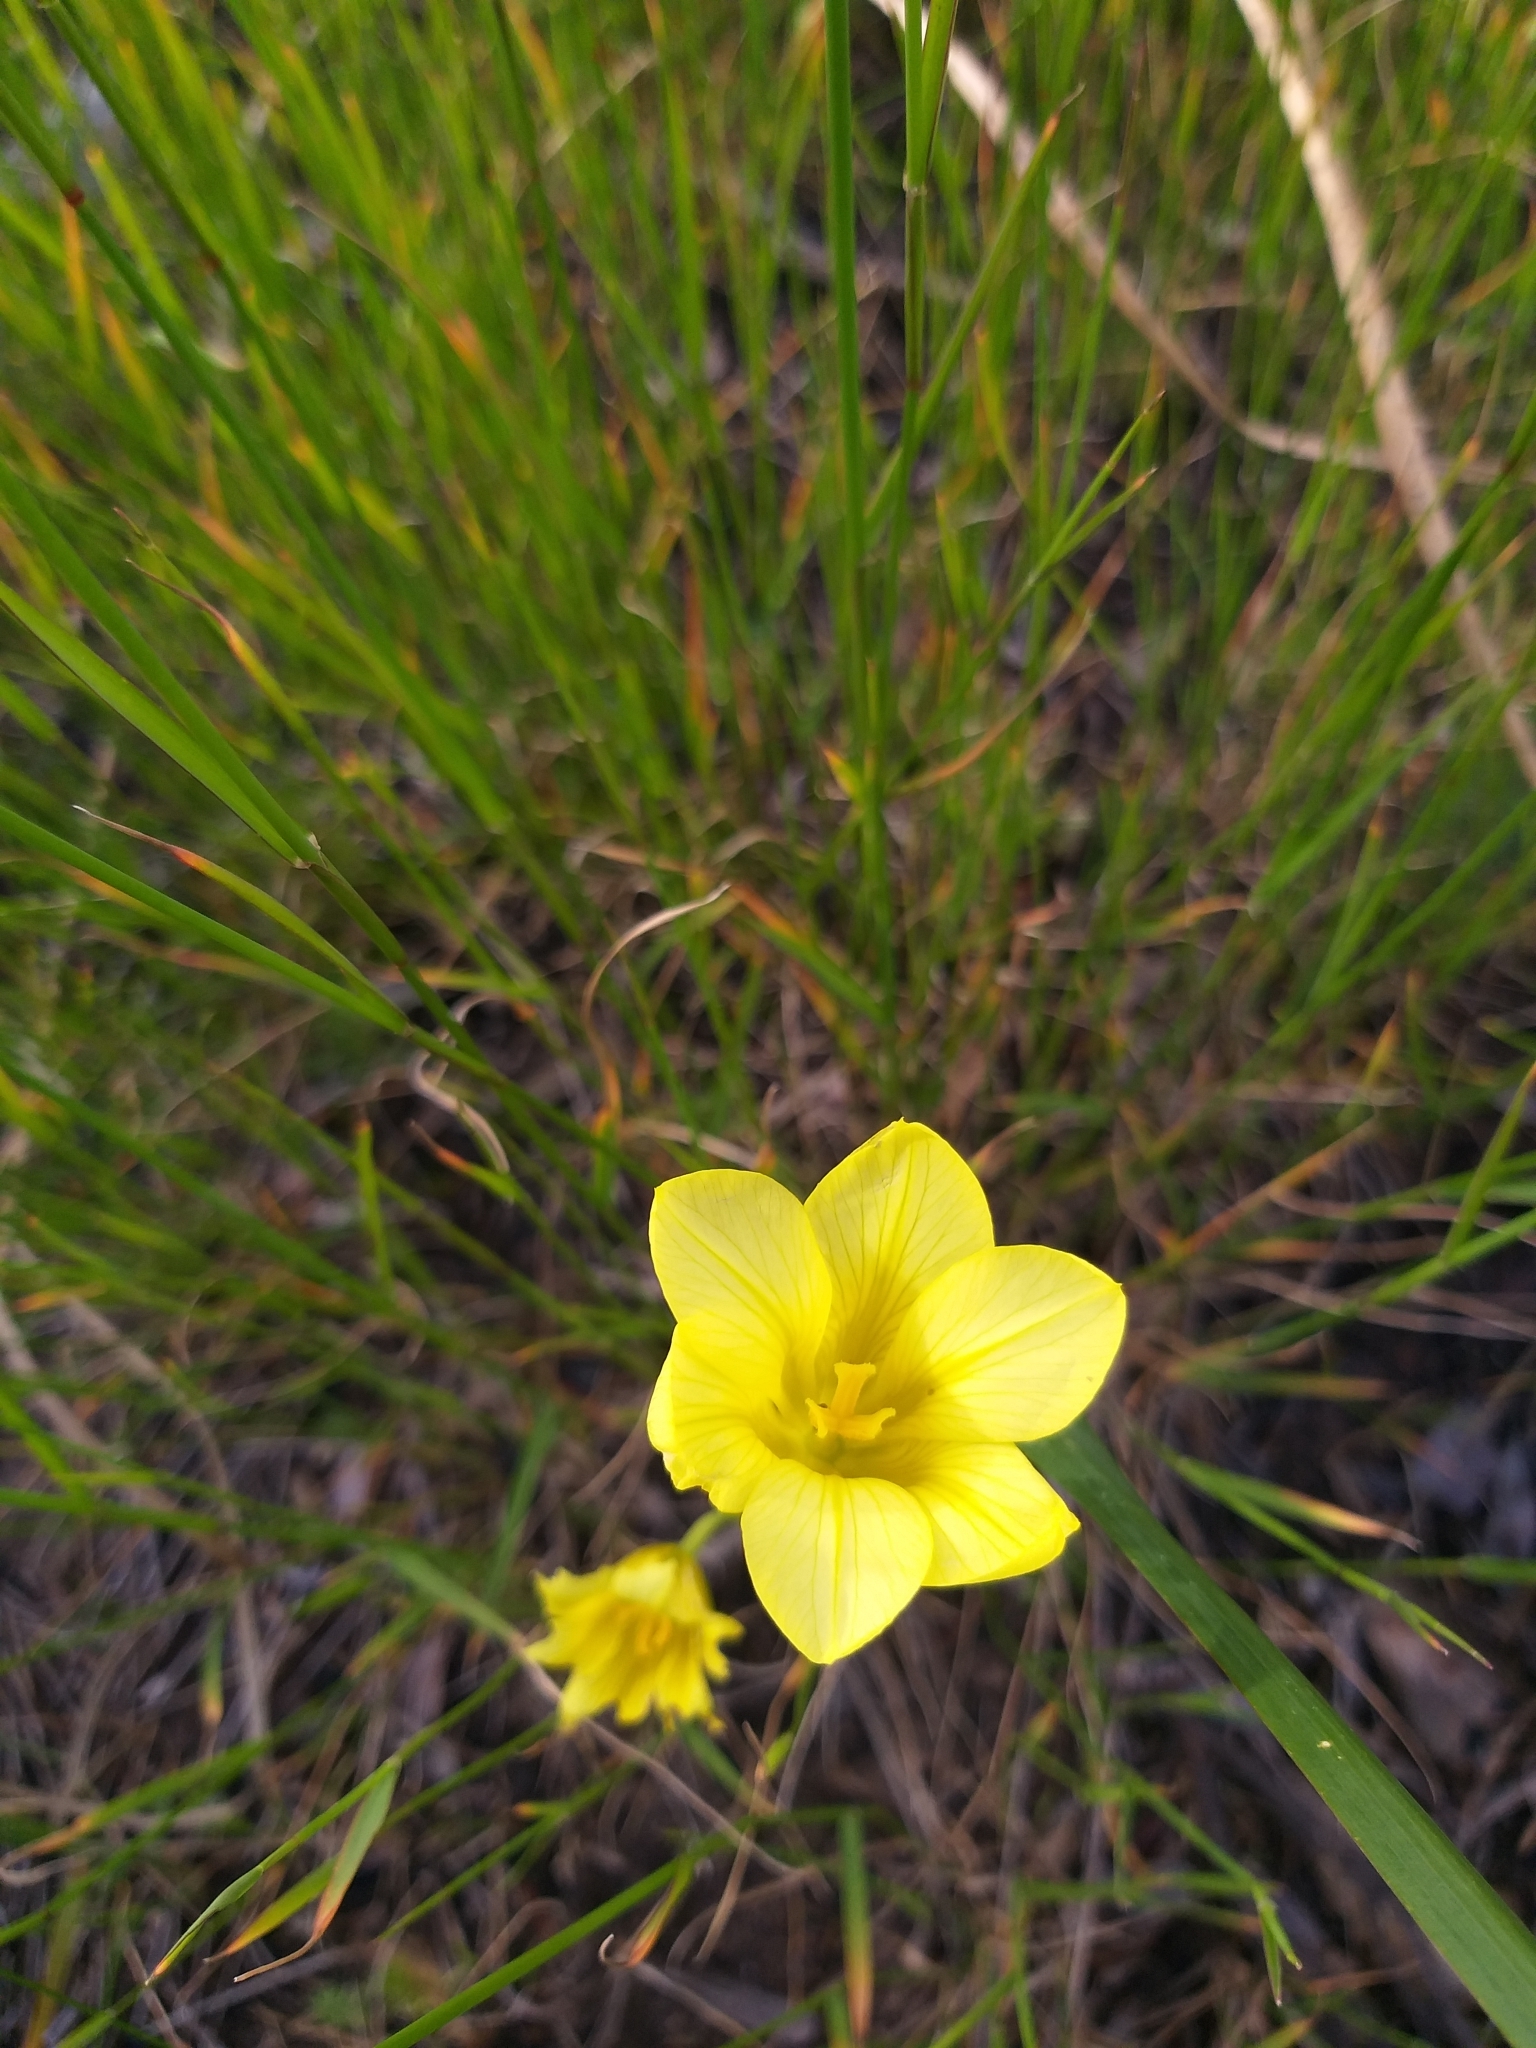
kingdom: Plantae
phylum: Tracheophyta
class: Liliopsida
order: Asparagales
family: Iridaceae
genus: Moraea
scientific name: Moraea ochroleuca
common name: Red tulp
